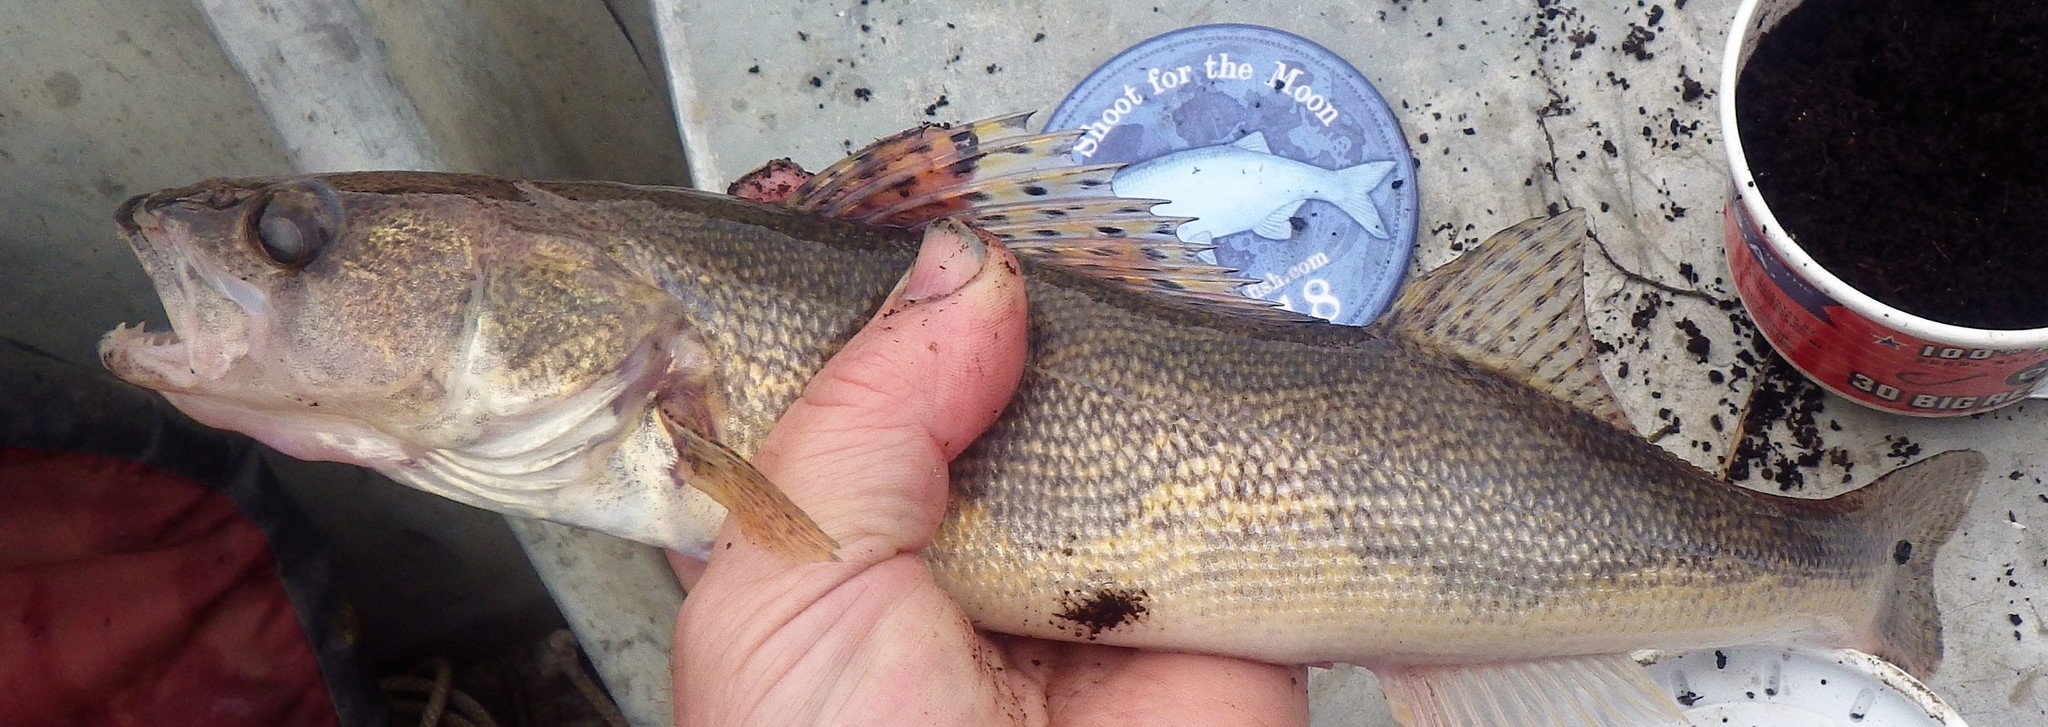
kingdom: Animalia
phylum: Chordata
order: Perciformes
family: Percidae
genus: Sander
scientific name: Sander canadensis
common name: Sauger
